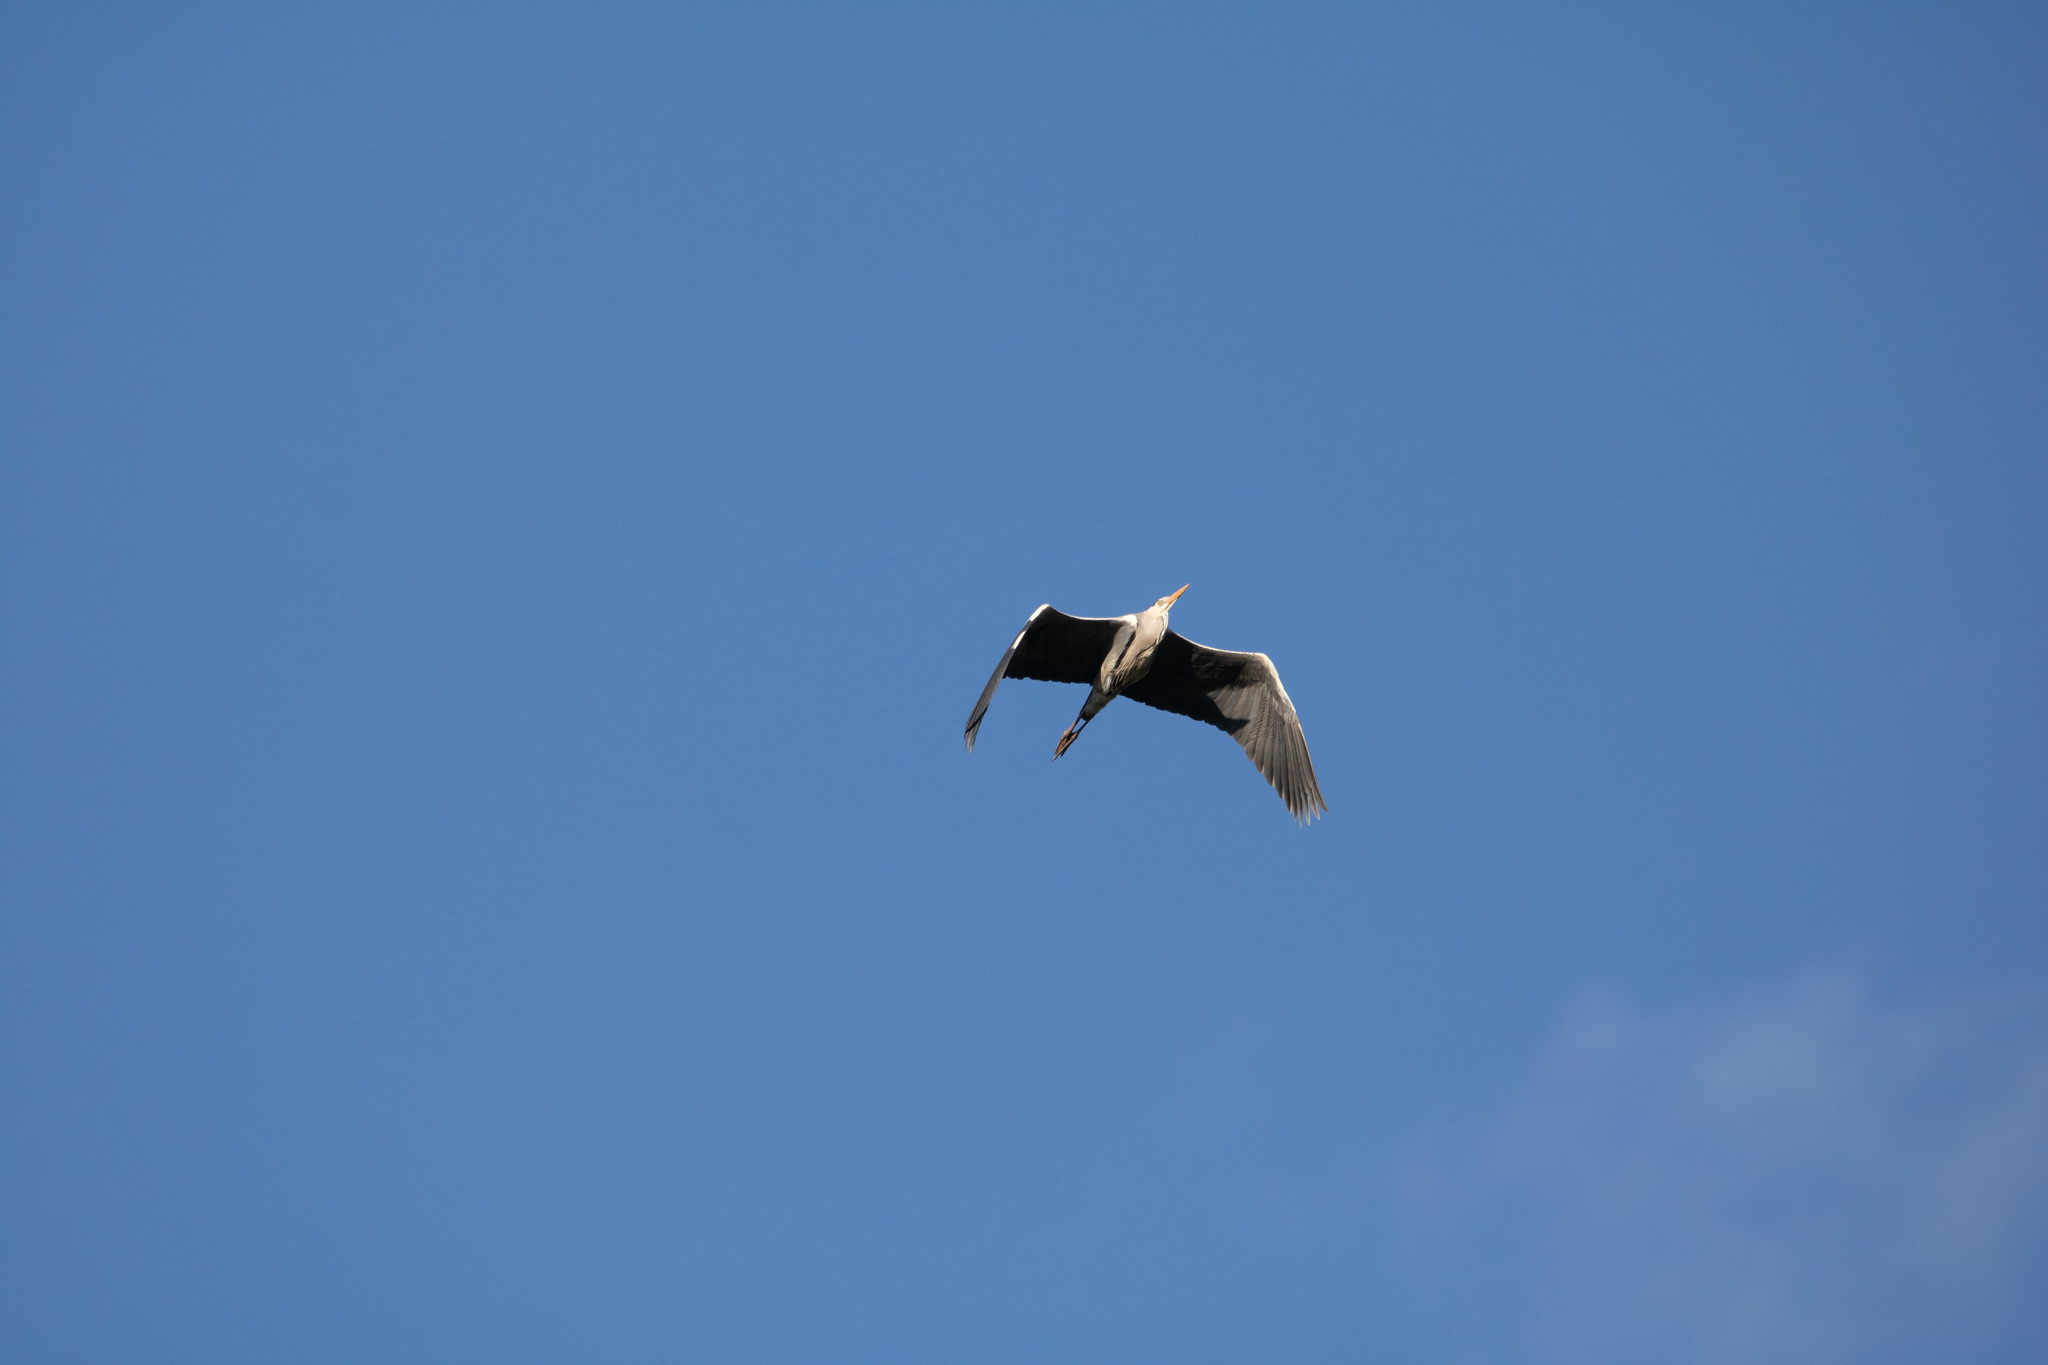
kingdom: Animalia
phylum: Chordata
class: Aves
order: Pelecaniformes
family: Ardeidae
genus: Ardea
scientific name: Ardea cinerea
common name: Grey heron
